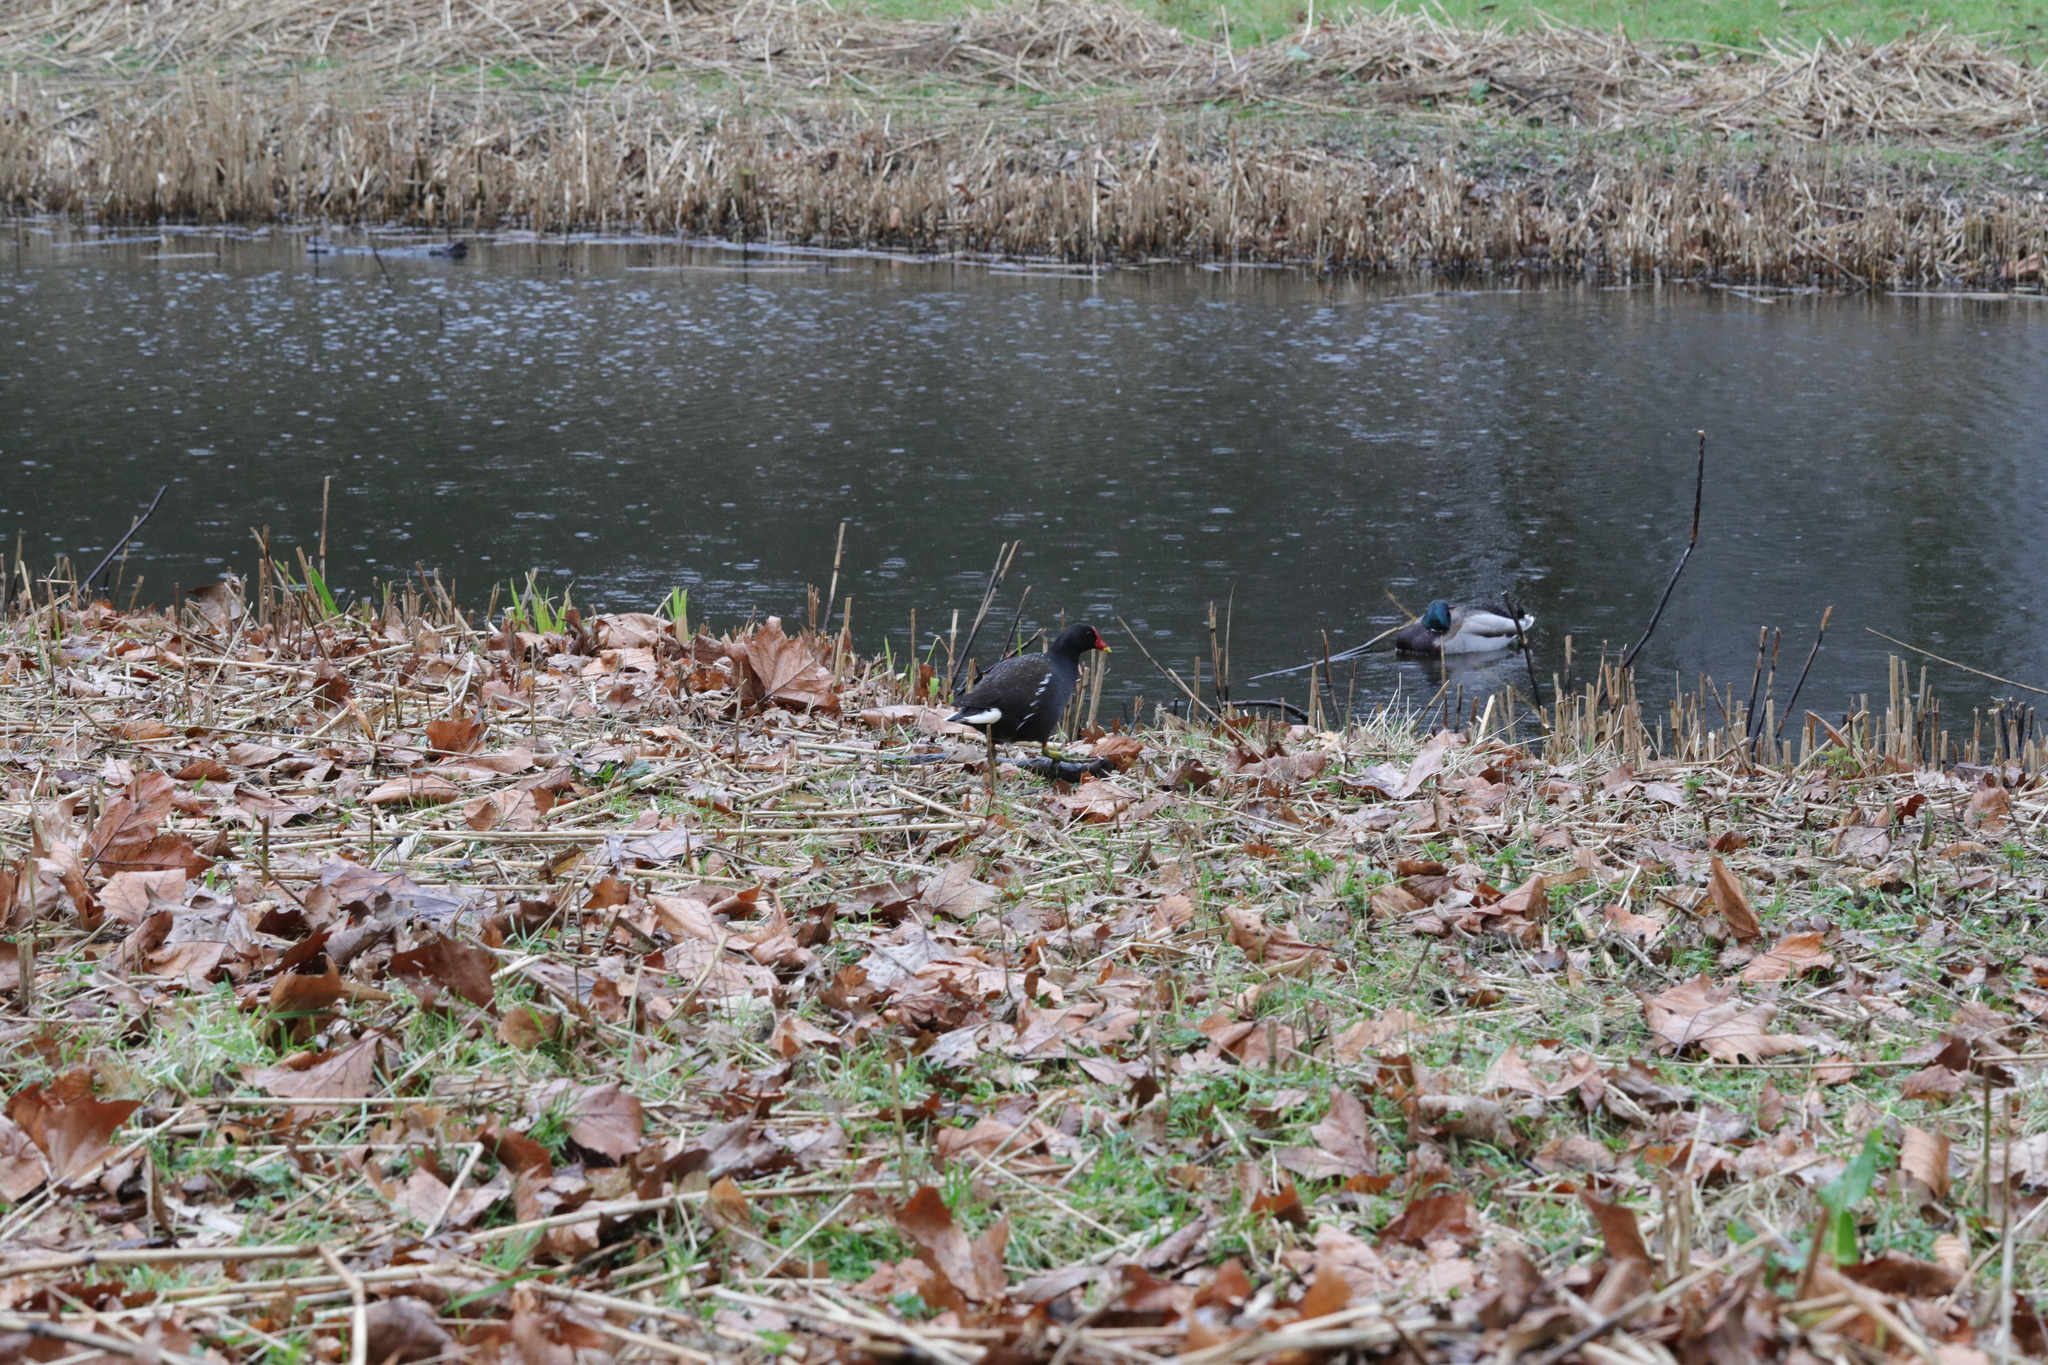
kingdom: Animalia
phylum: Chordata
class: Aves
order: Gruiformes
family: Rallidae
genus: Gallinula
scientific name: Gallinula chloropus
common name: Common moorhen
